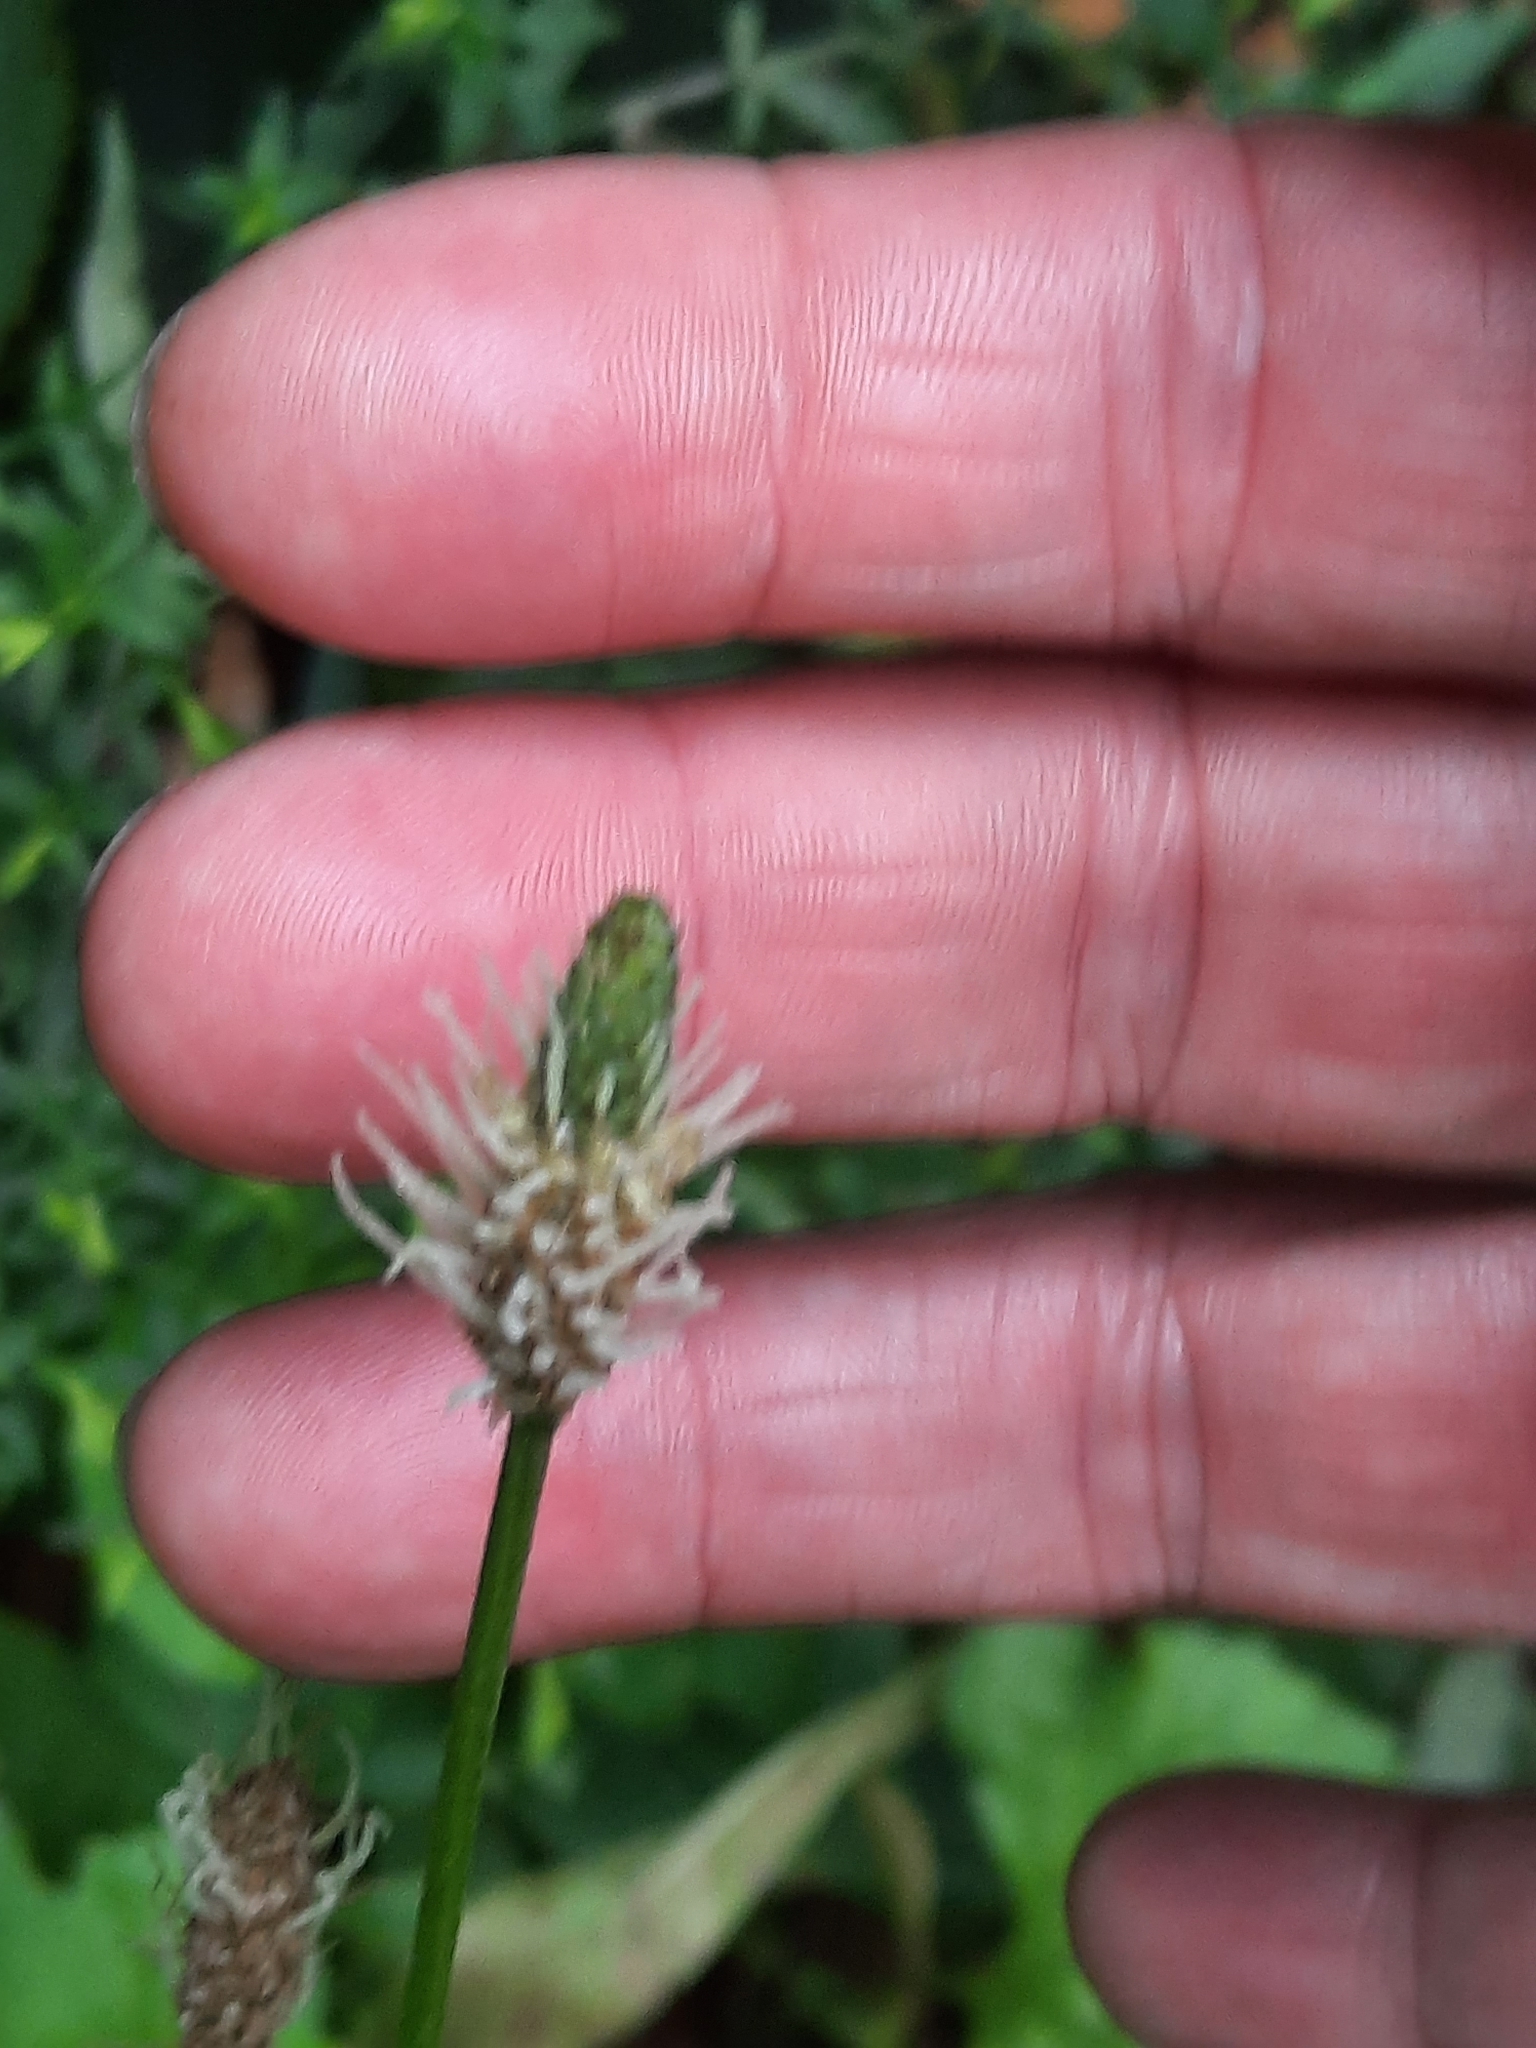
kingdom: Plantae
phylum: Tracheophyta
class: Magnoliopsida
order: Lamiales
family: Plantaginaceae
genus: Plantago
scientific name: Plantago lanceolata
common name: Ribwort plantain
